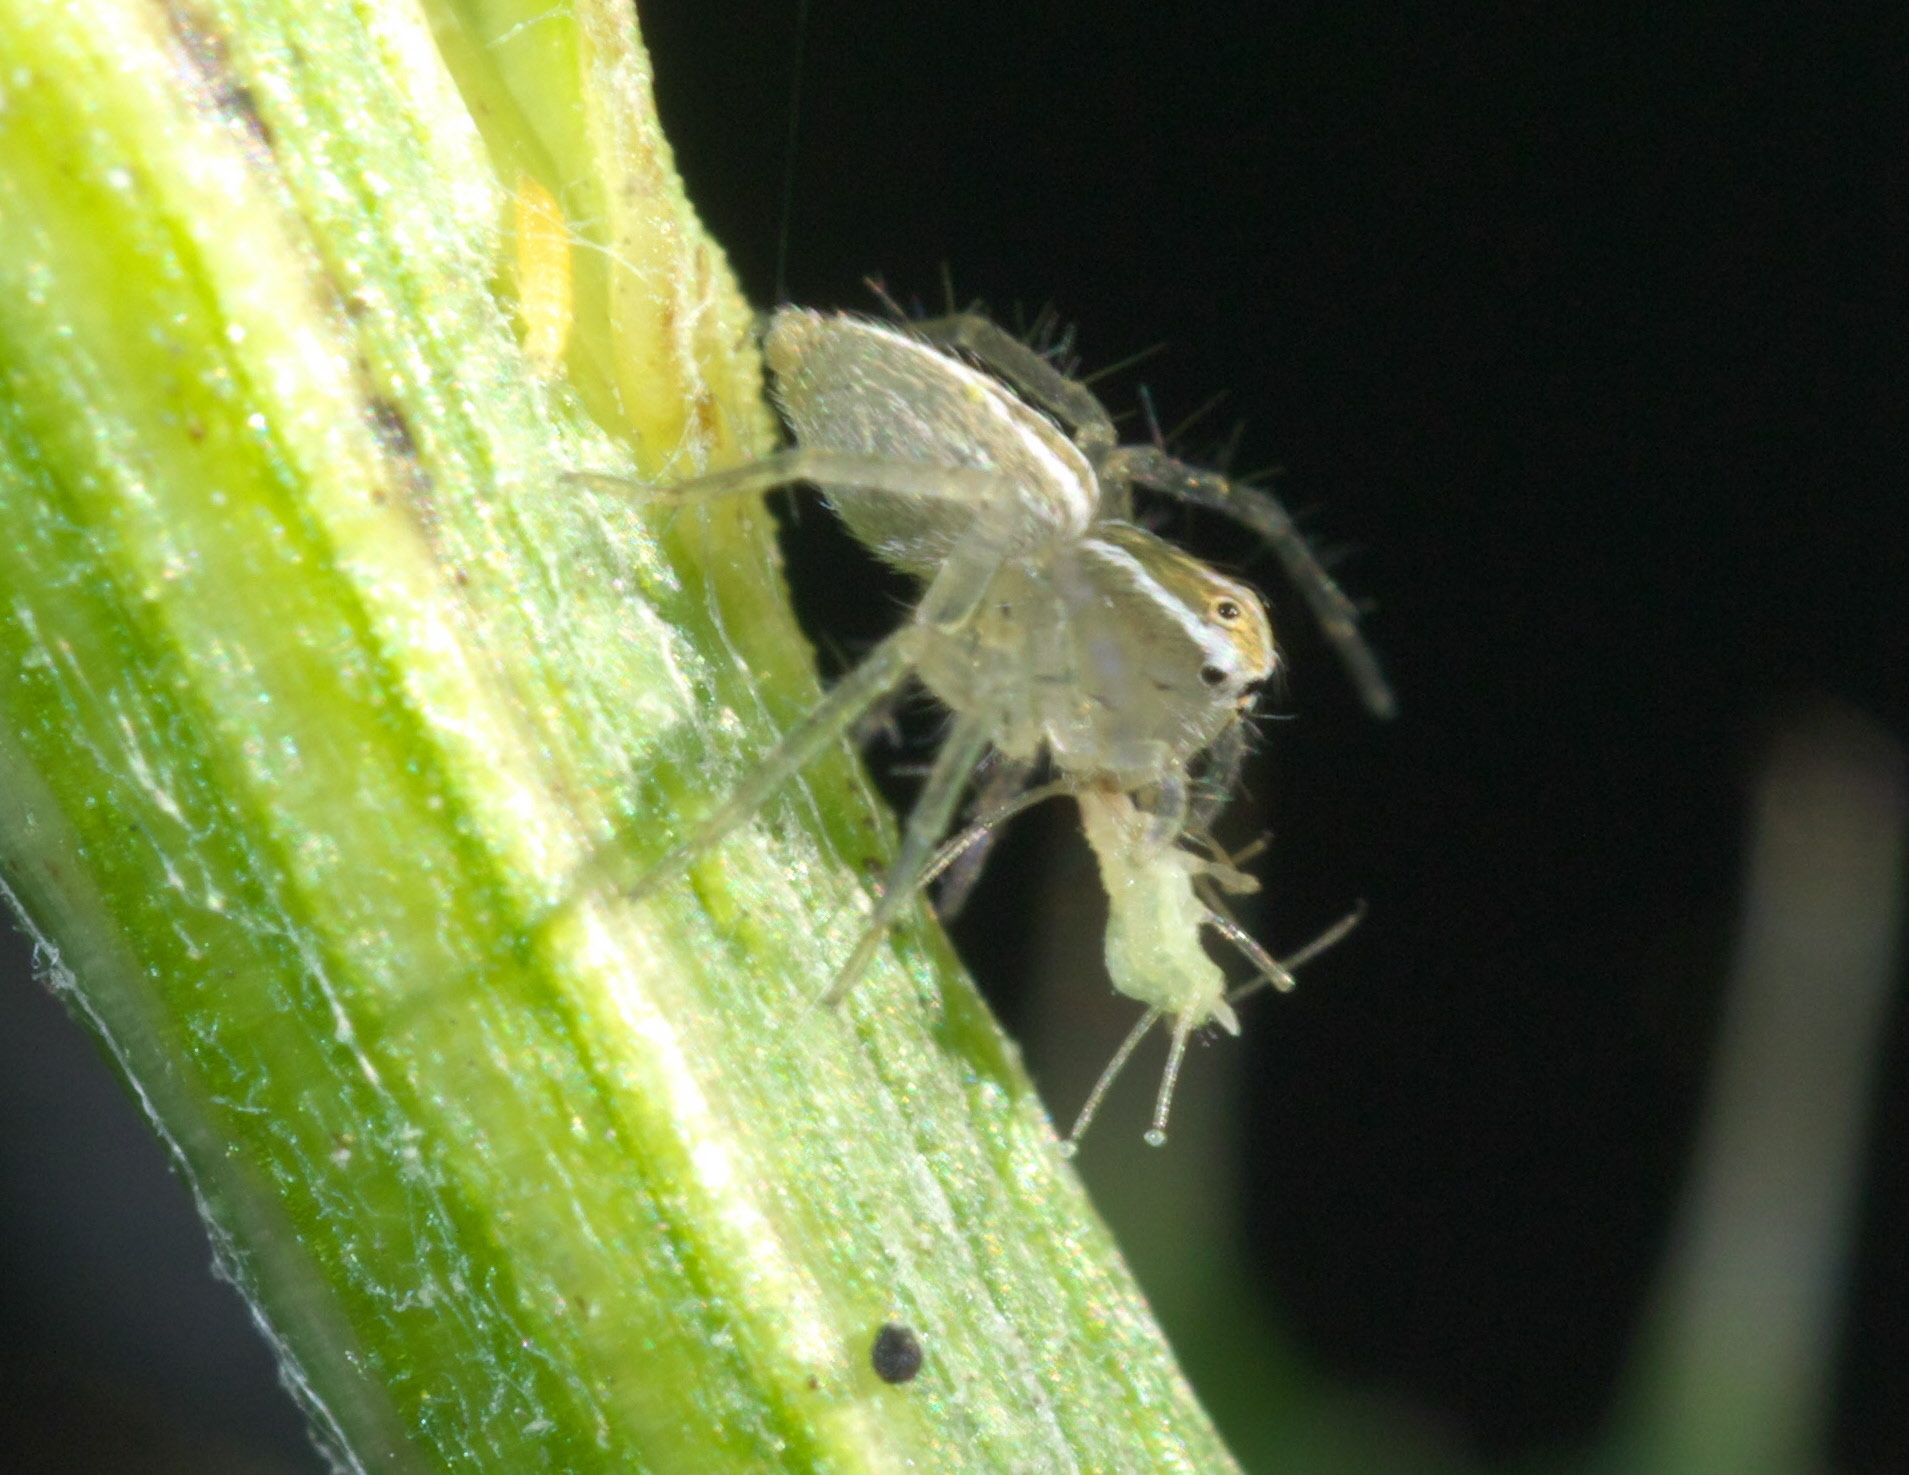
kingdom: Animalia
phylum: Arthropoda
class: Arachnida
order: Araneae
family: Oxyopidae
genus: Oxyopes
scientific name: Oxyopes salticus
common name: Lynx spiders
